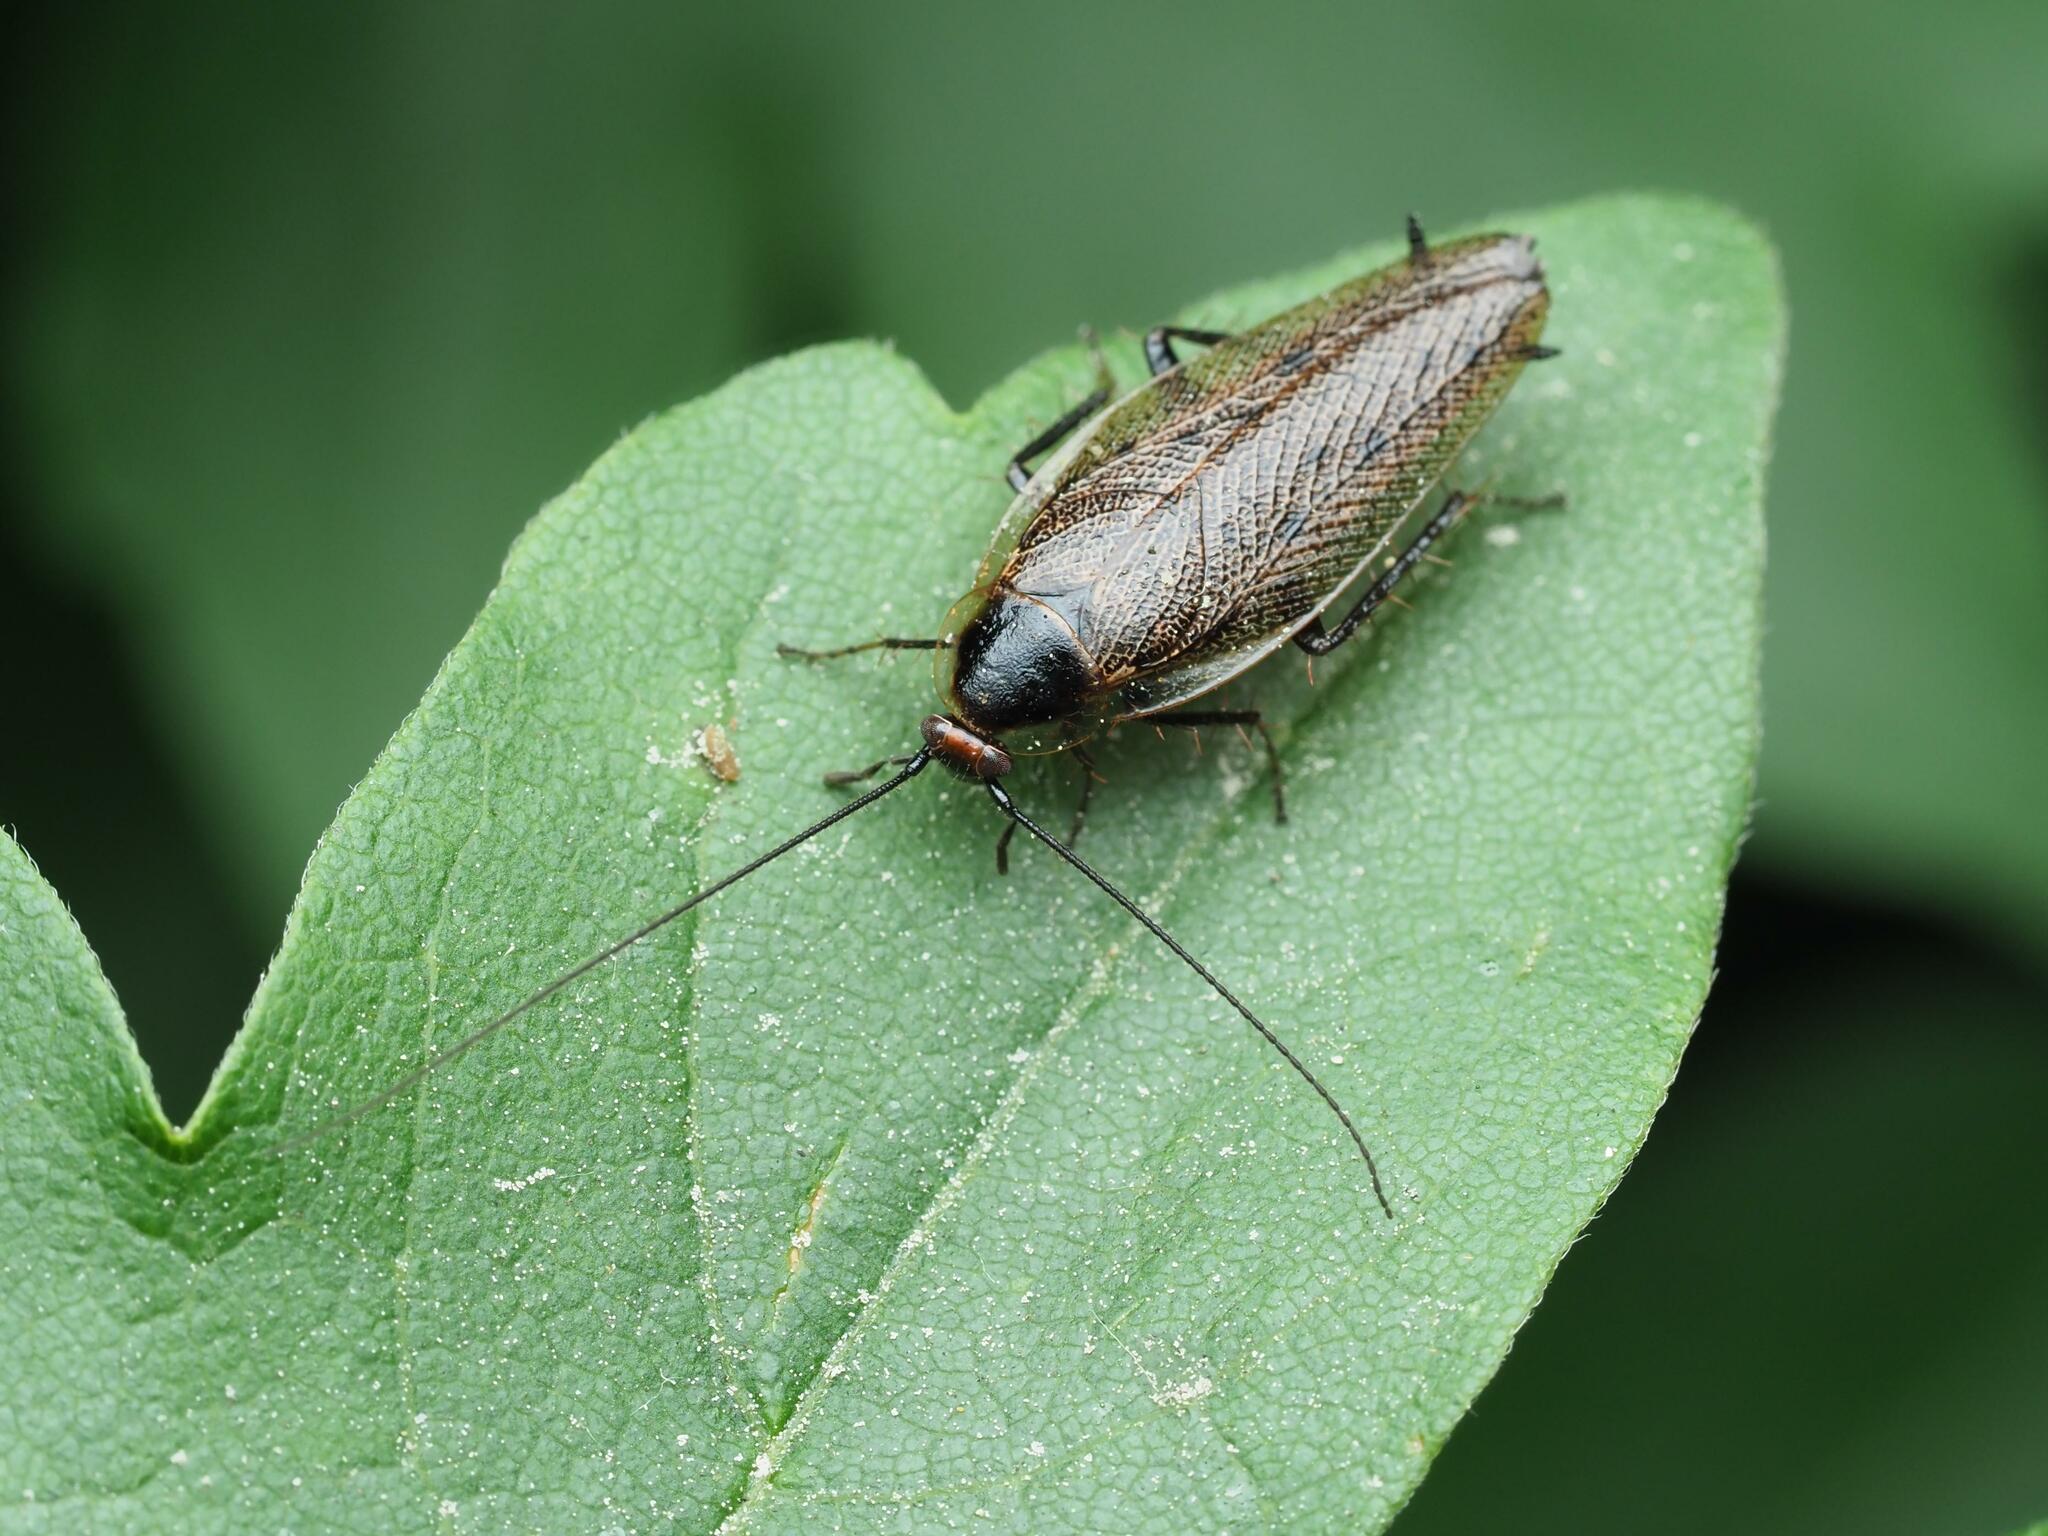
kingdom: Animalia
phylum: Arthropoda
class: Insecta
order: Blattodea
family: Ectobiidae
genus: Ectobius
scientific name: Ectobius lapponicus
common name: Dusky cockroach
